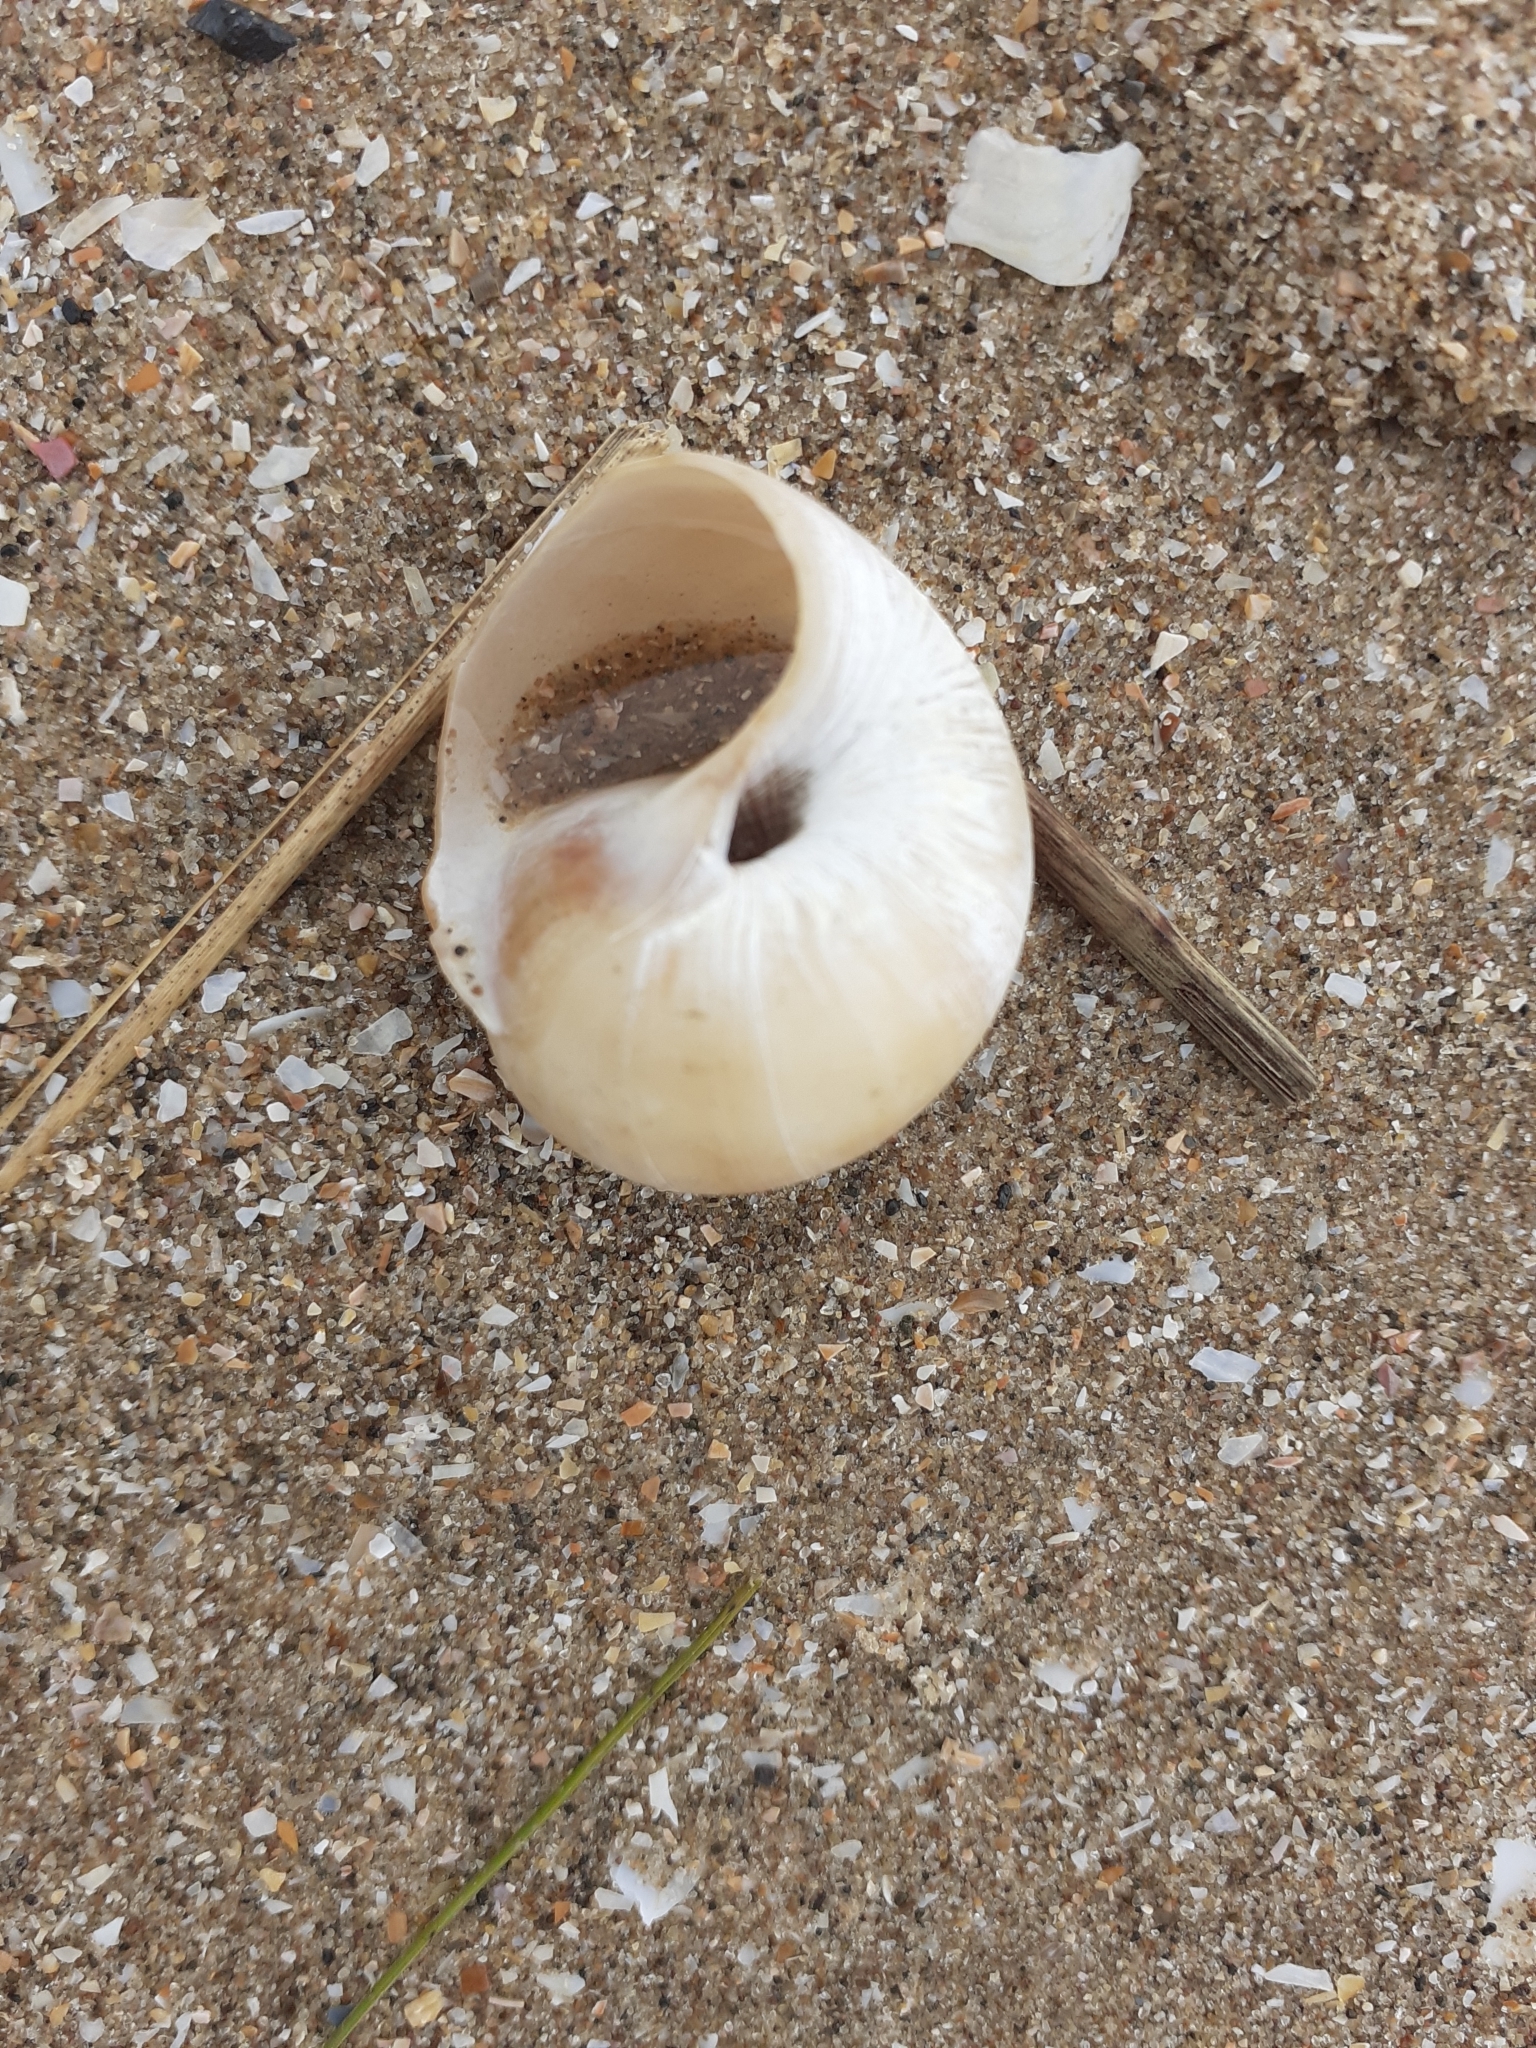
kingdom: Animalia
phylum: Mollusca
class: Gastropoda
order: Littorinimorpha
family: Naticidae
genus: Euspira
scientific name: Euspira catena
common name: Necklace shell
